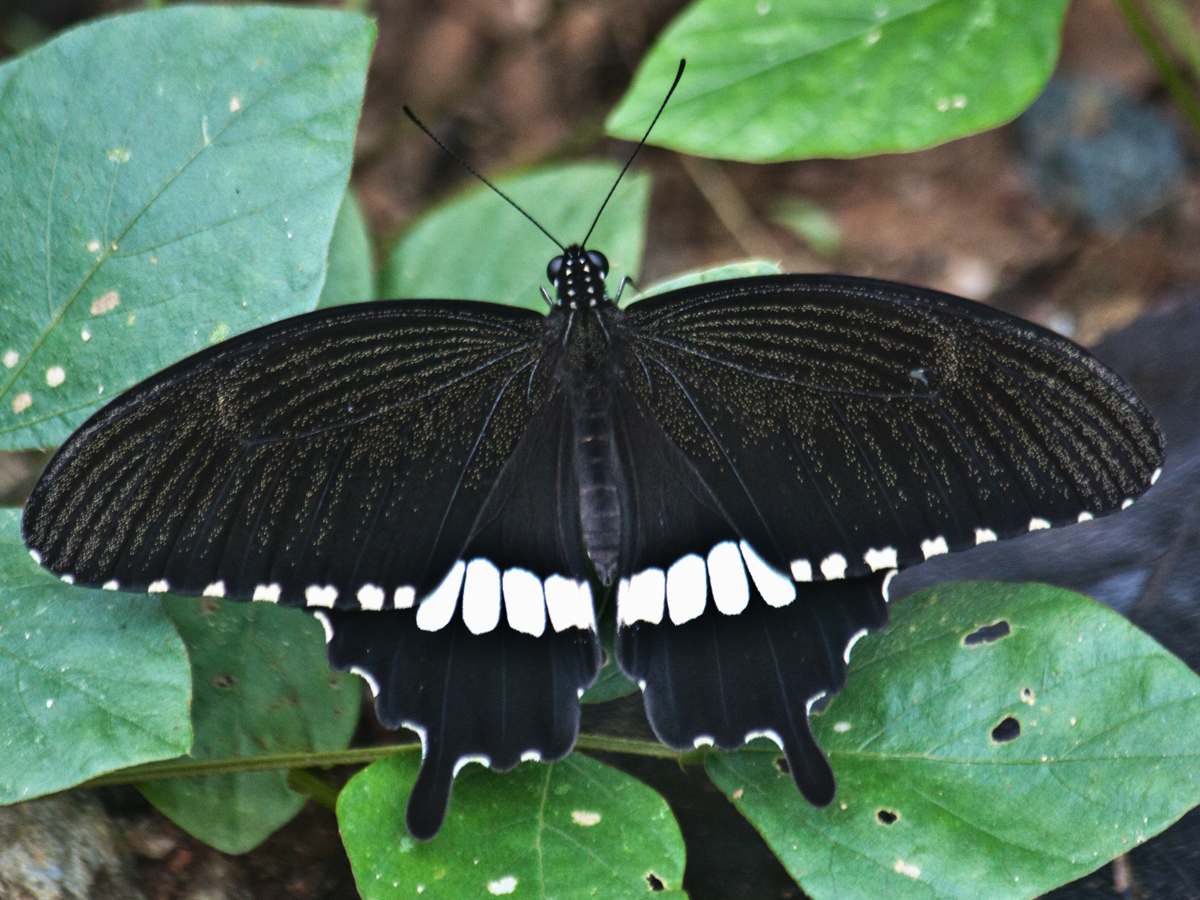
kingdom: Animalia
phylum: Arthropoda
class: Insecta
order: Lepidoptera
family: Papilionidae
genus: Papilio
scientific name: Papilio polytes
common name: Common mormon
